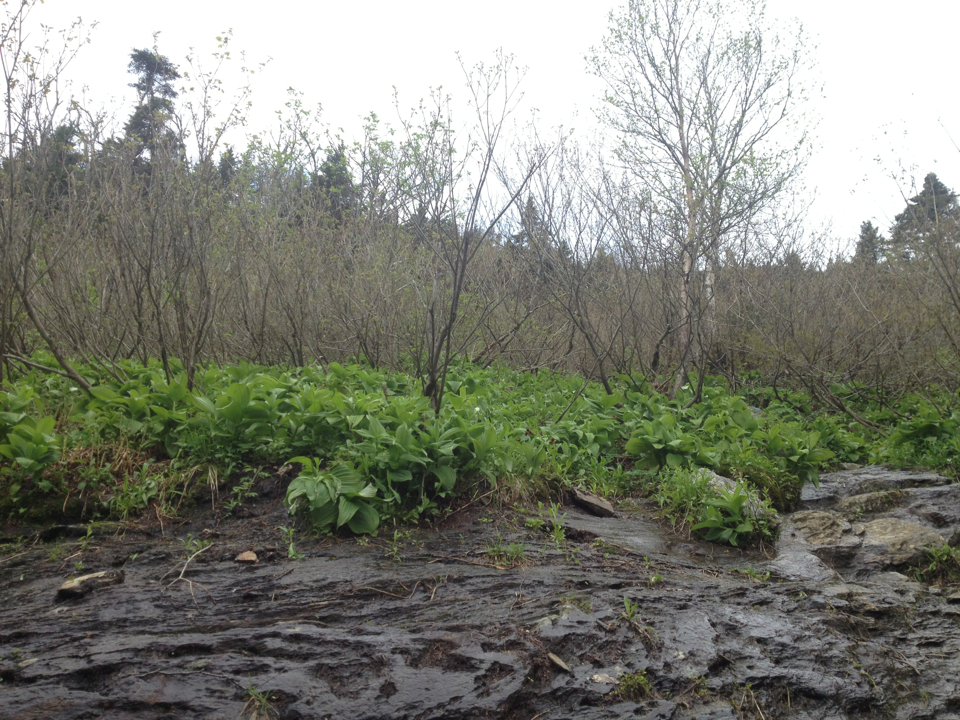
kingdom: Plantae
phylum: Tracheophyta
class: Liliopsida
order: Liliales
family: Melanthiaceae
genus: Veratrum
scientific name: Veratrum viride
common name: American false hellebore
